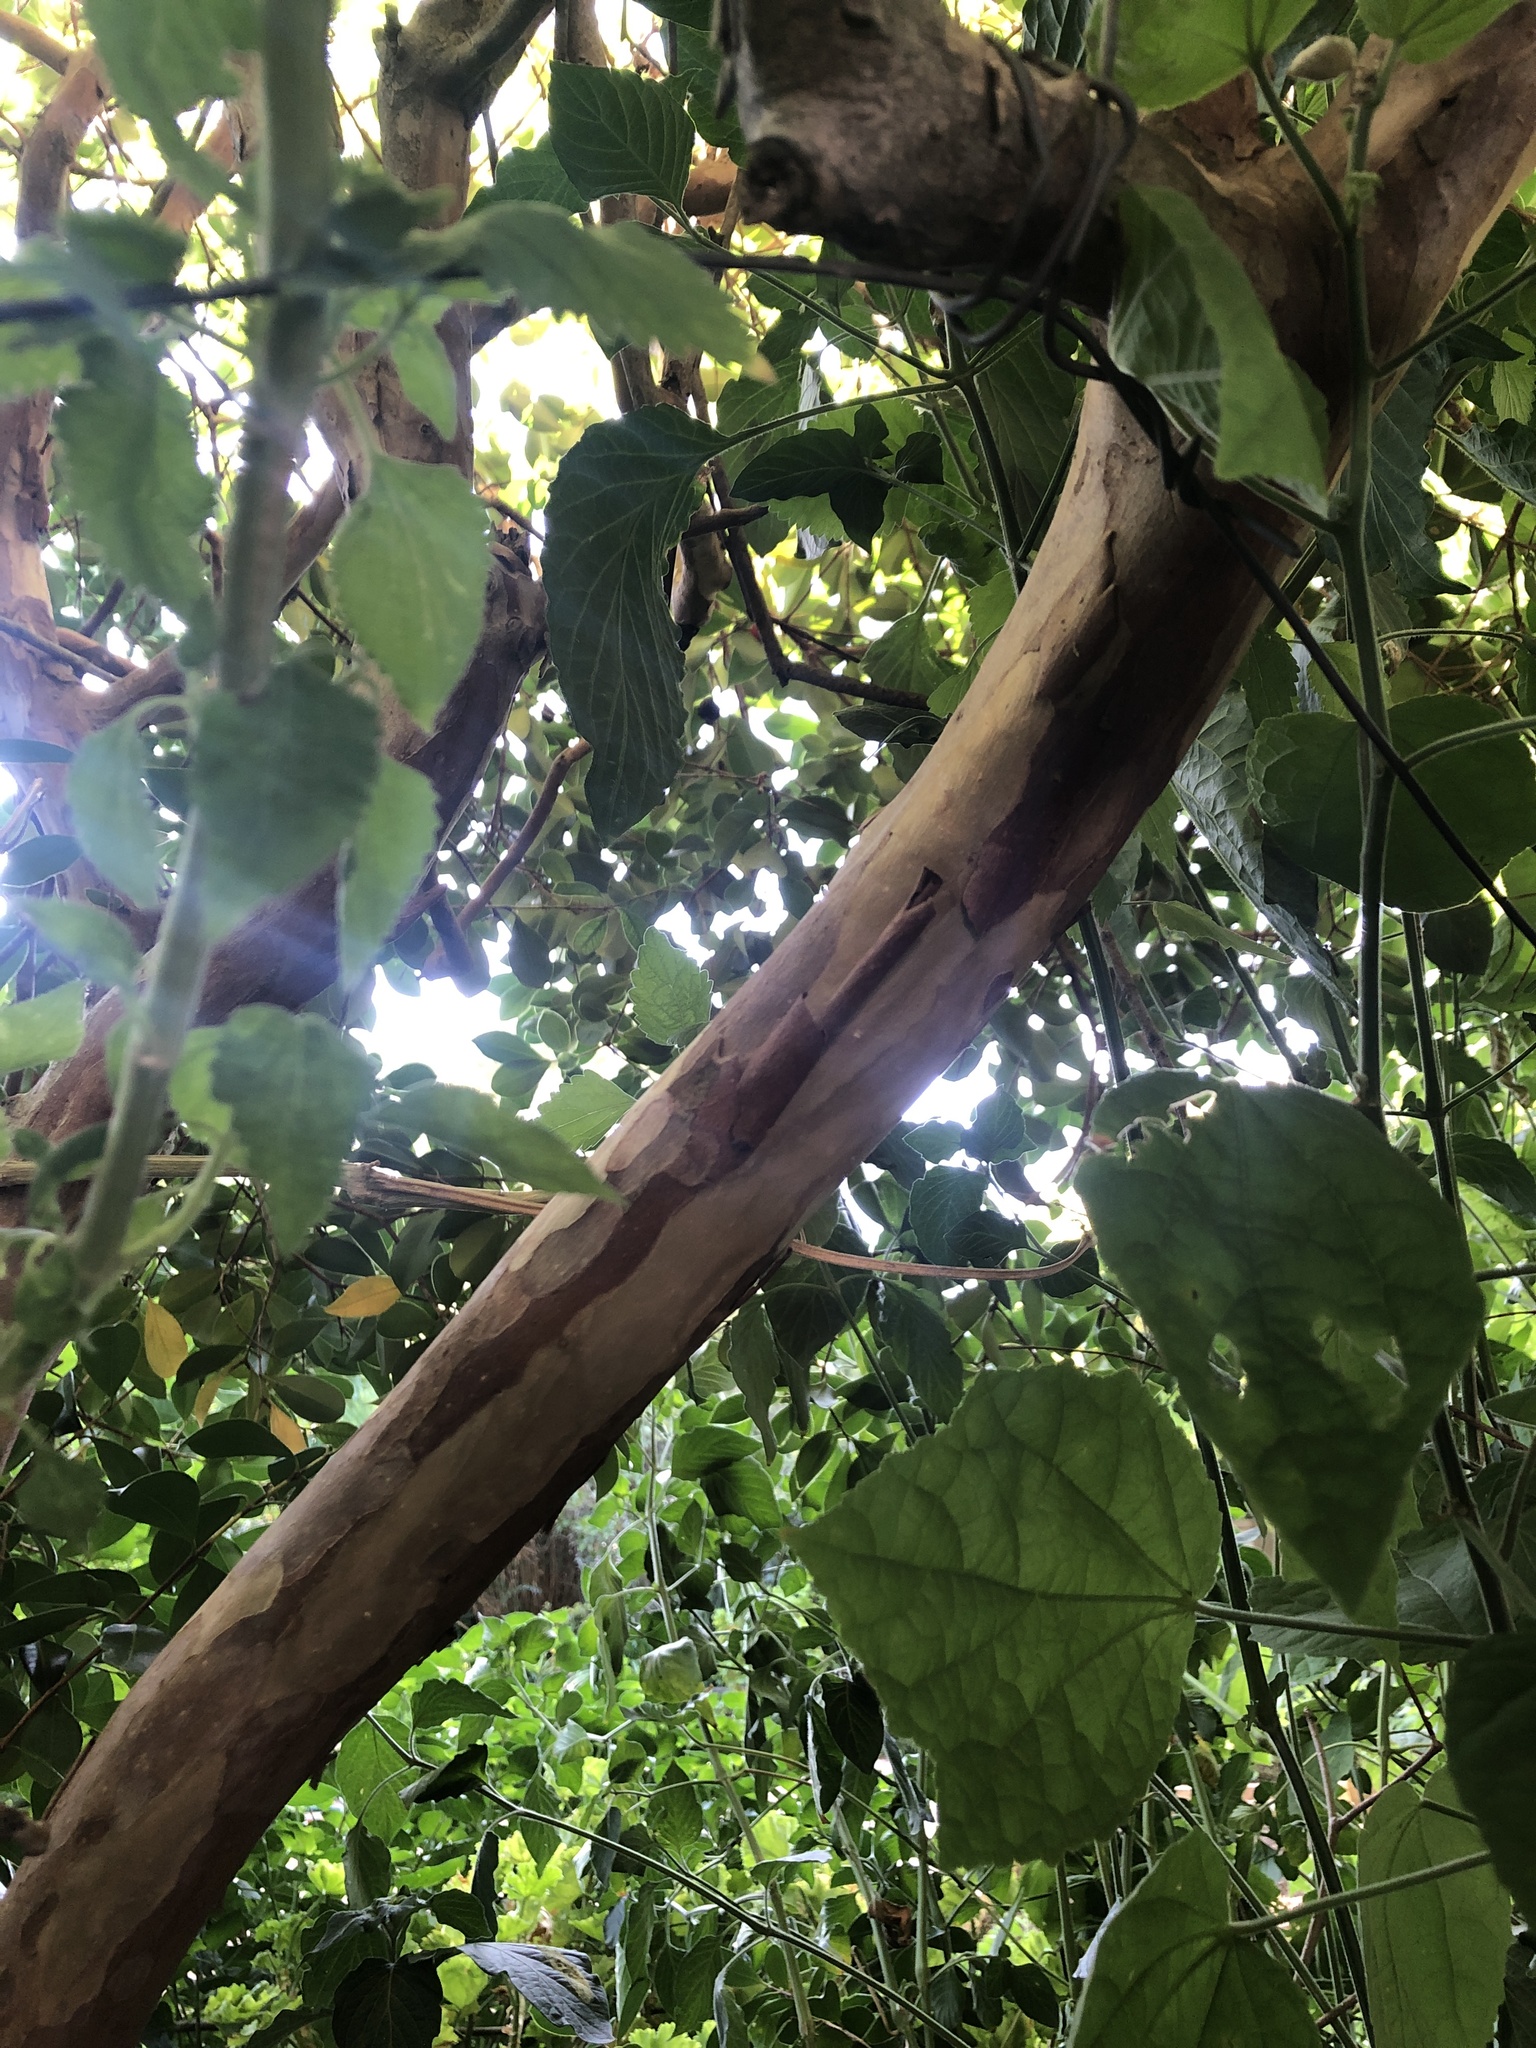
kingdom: Plantae
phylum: Tracheophyta
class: Magnoliopsida
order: Myrtales
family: Myrtaceae
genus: Psidium
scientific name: Psidium cattleianum
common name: Strawberry guava
